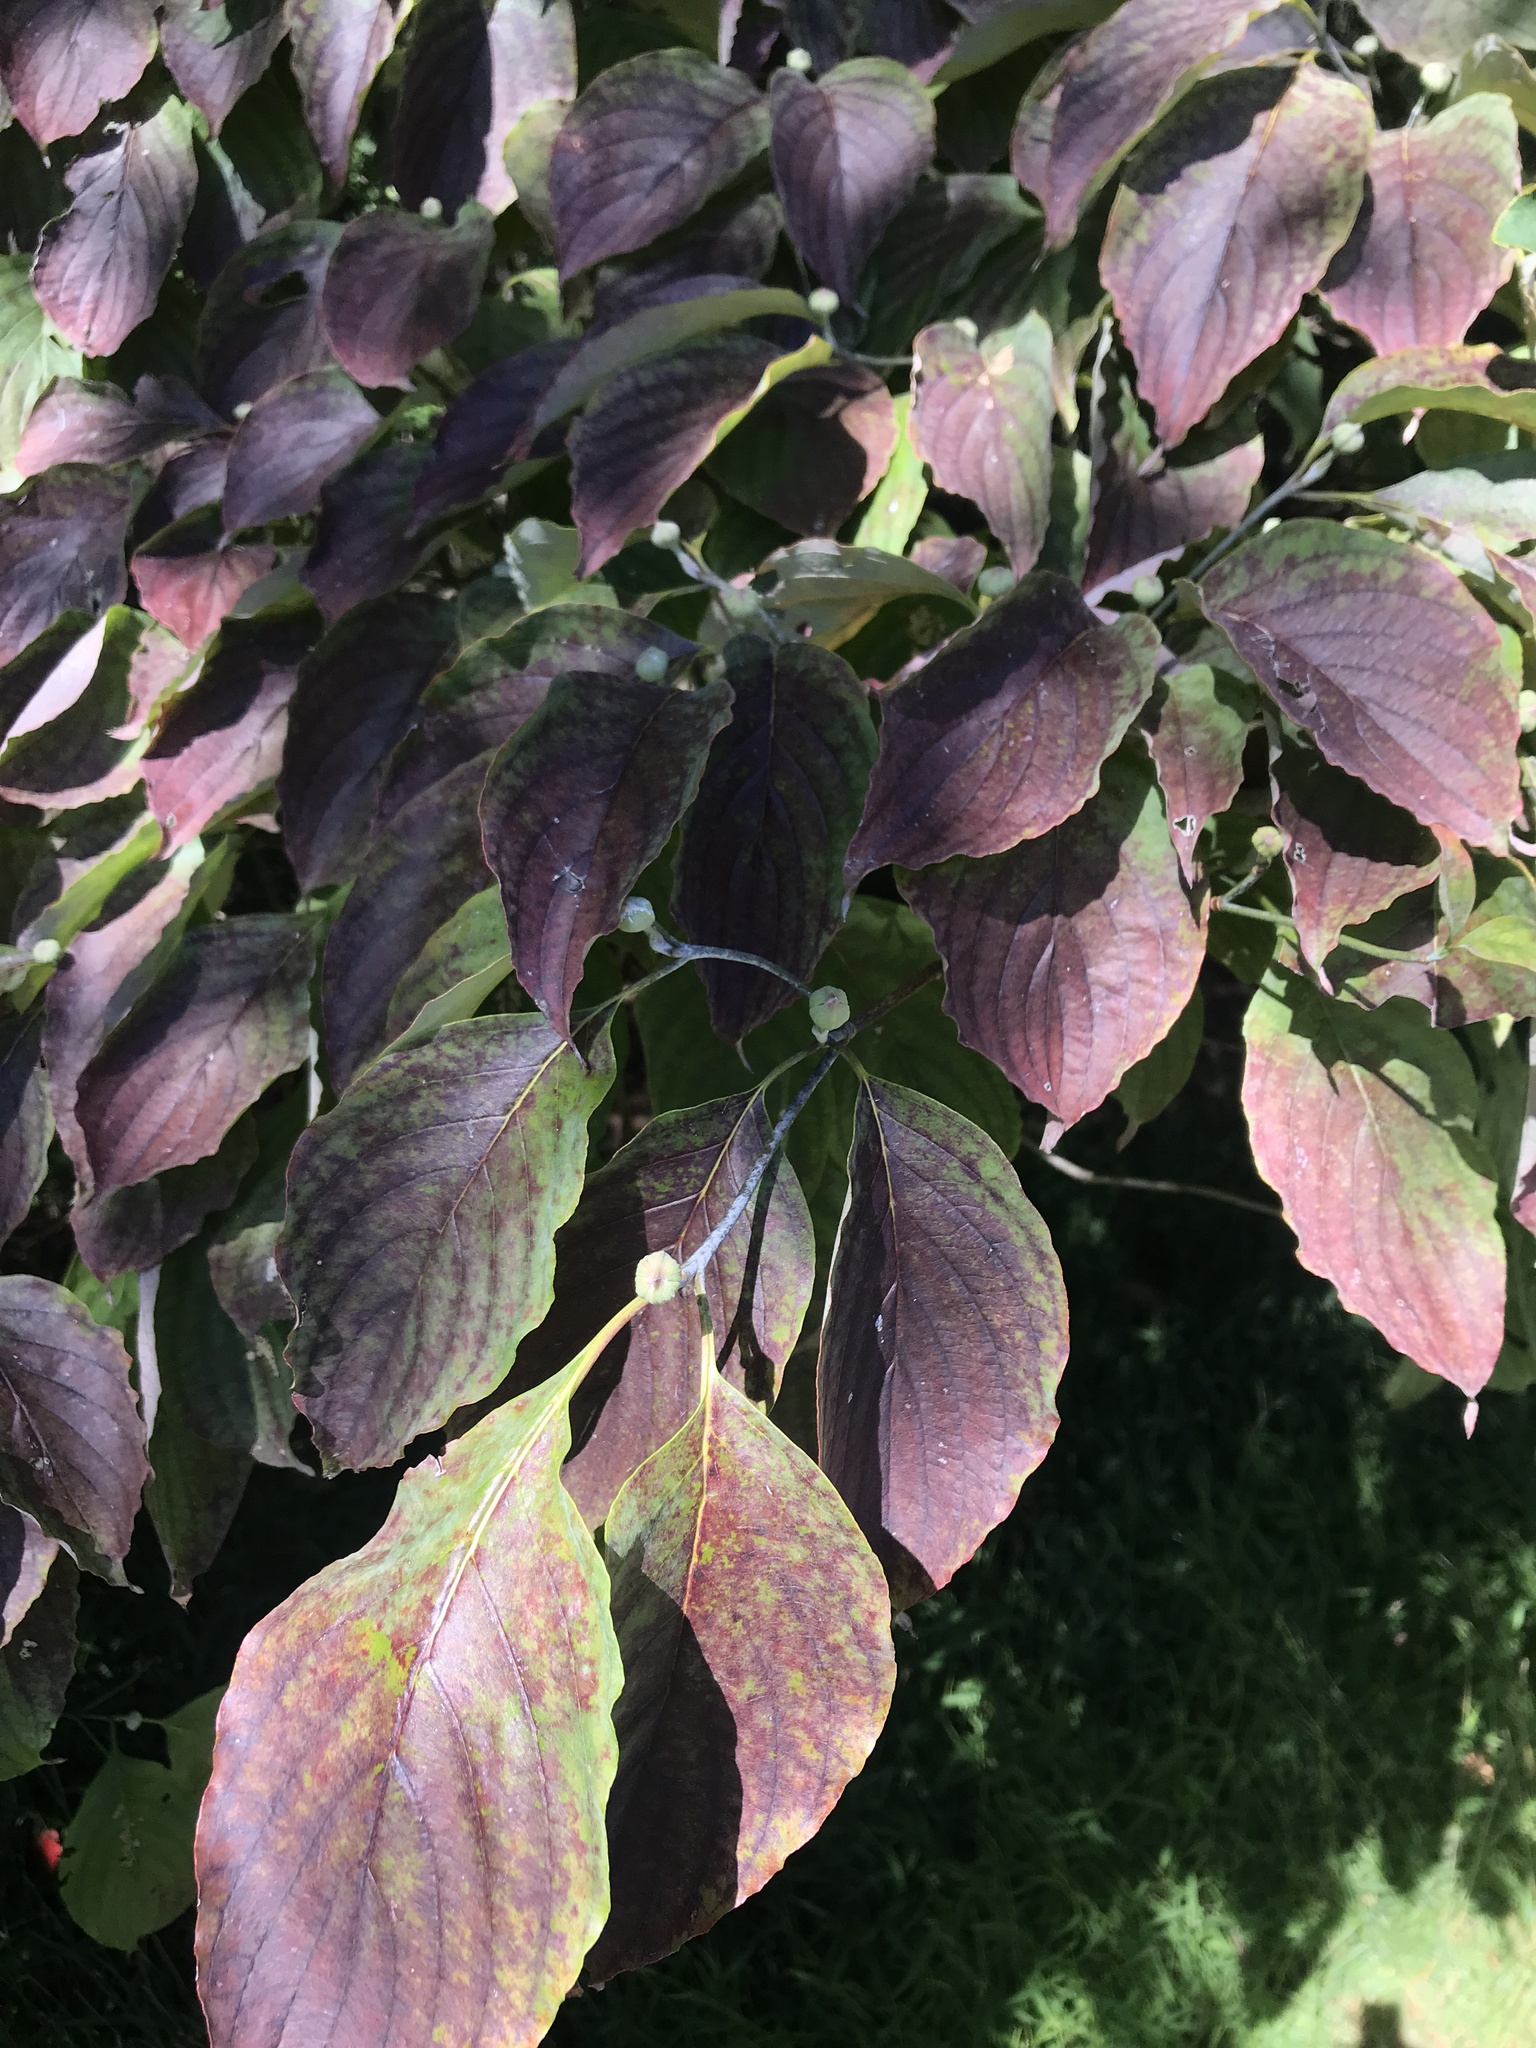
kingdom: Plantae
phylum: Tracheophyta
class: Magnoliopsida
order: Cornales
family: Cornaceae
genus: Cornus
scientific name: Cornus florida
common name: Flowering dogwood
